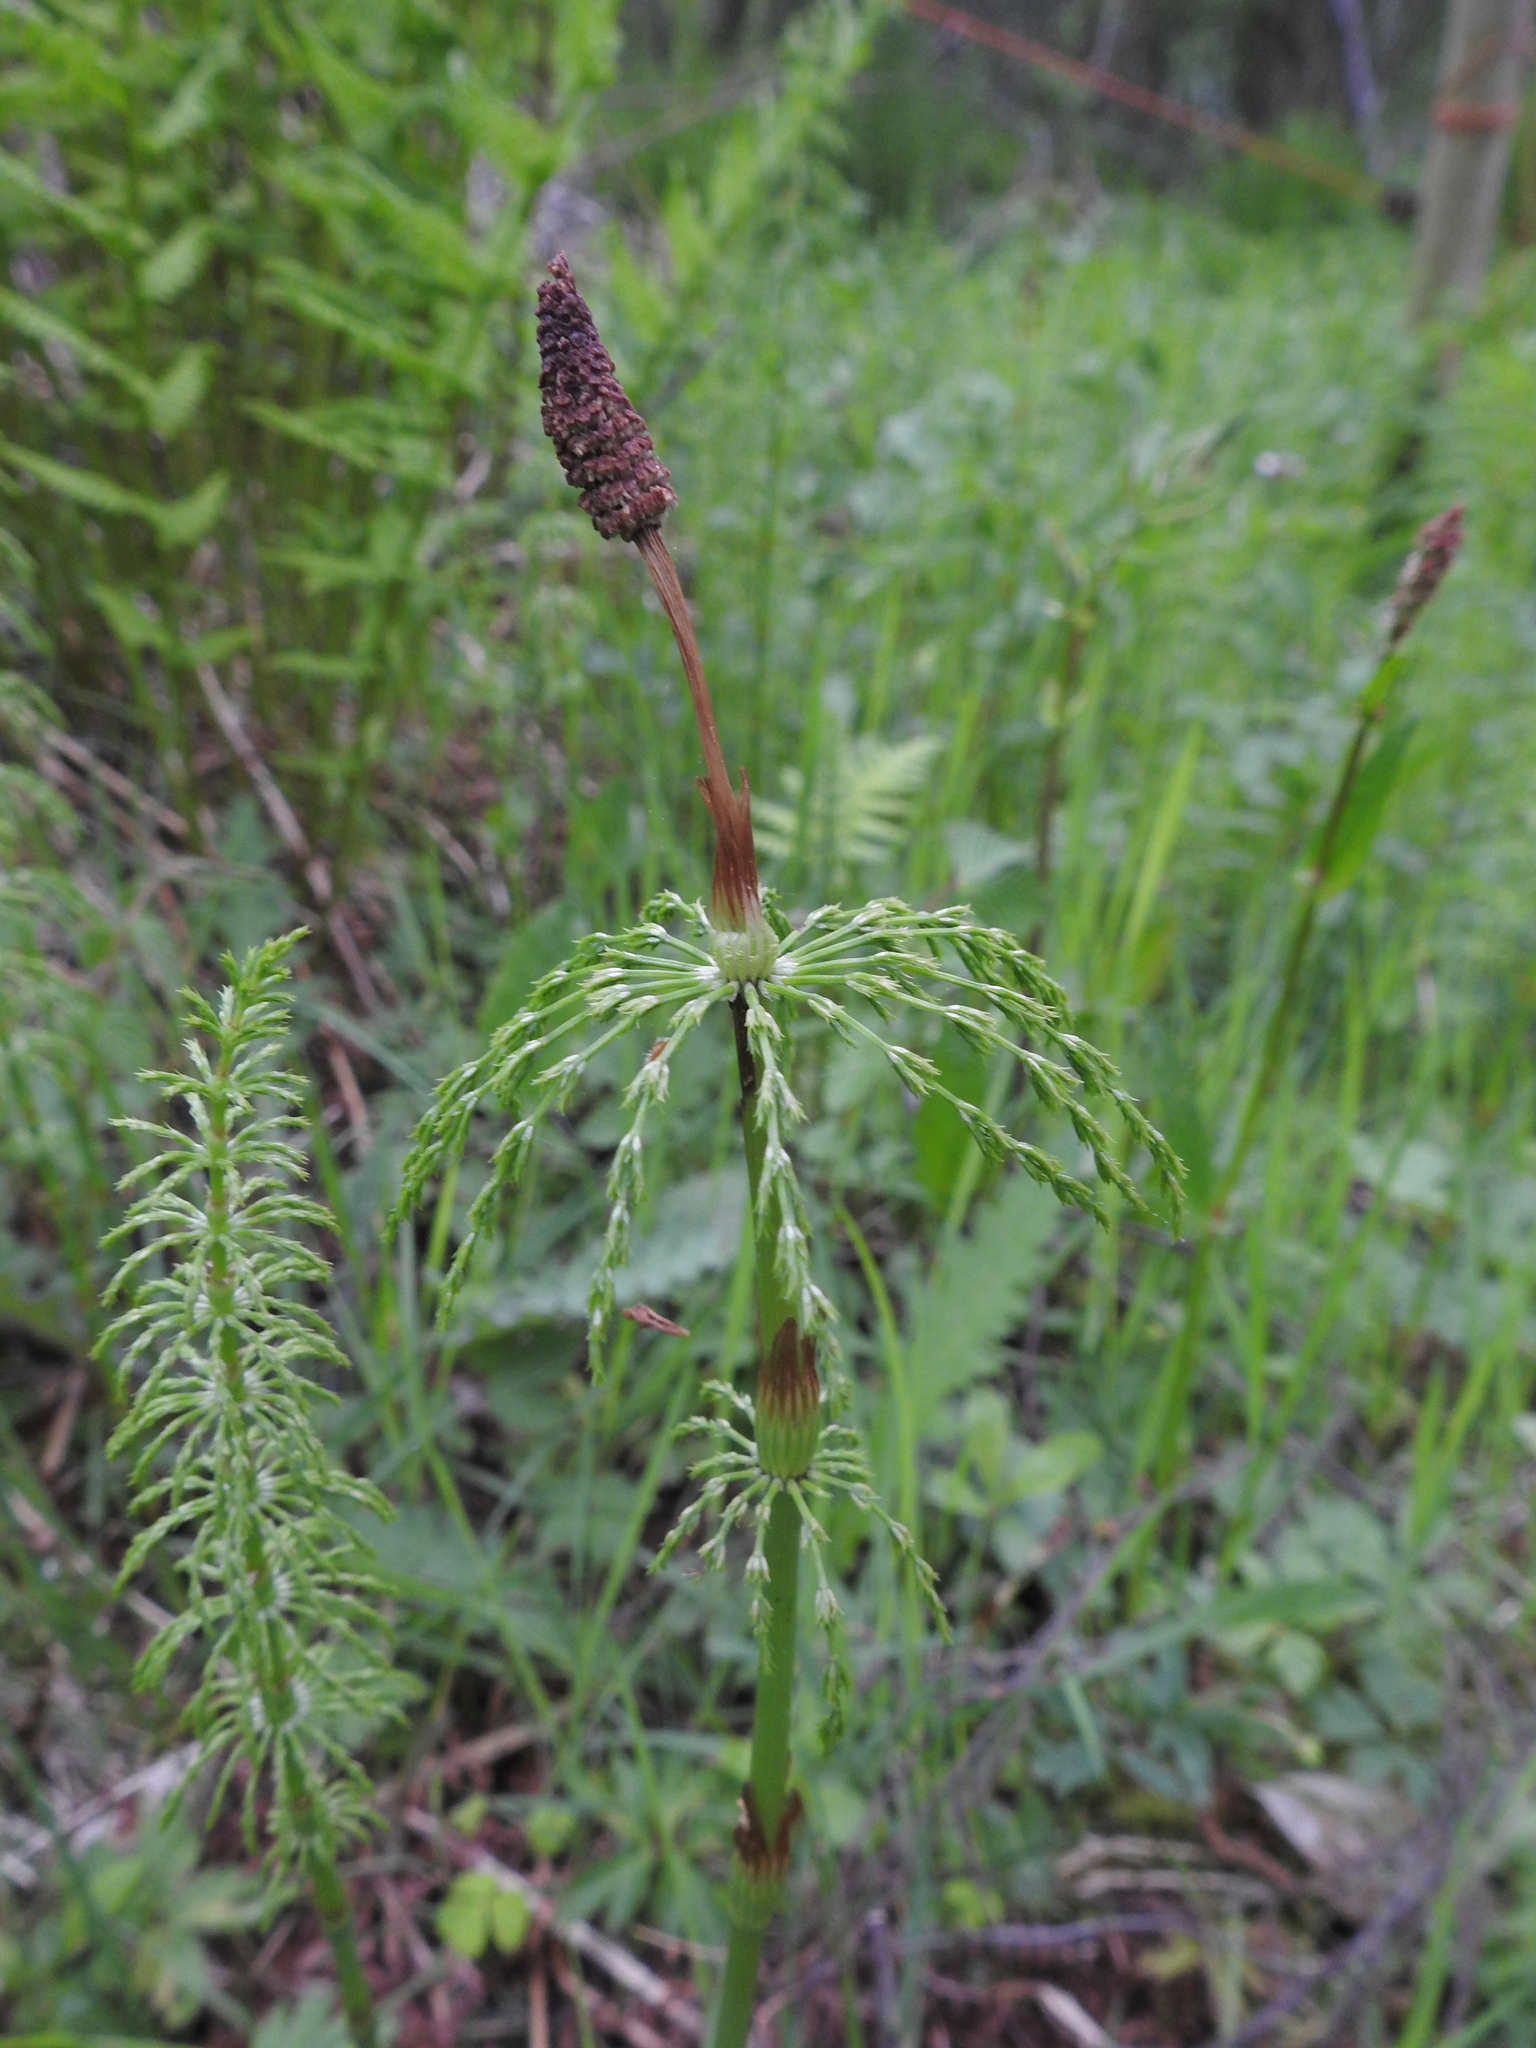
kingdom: Plantae
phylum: Tracheophyta
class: Polypodiopsida
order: Equisetales
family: Equisetaceae
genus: Equisetum
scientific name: Equisetum sylvaticum
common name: Wood horsetail
